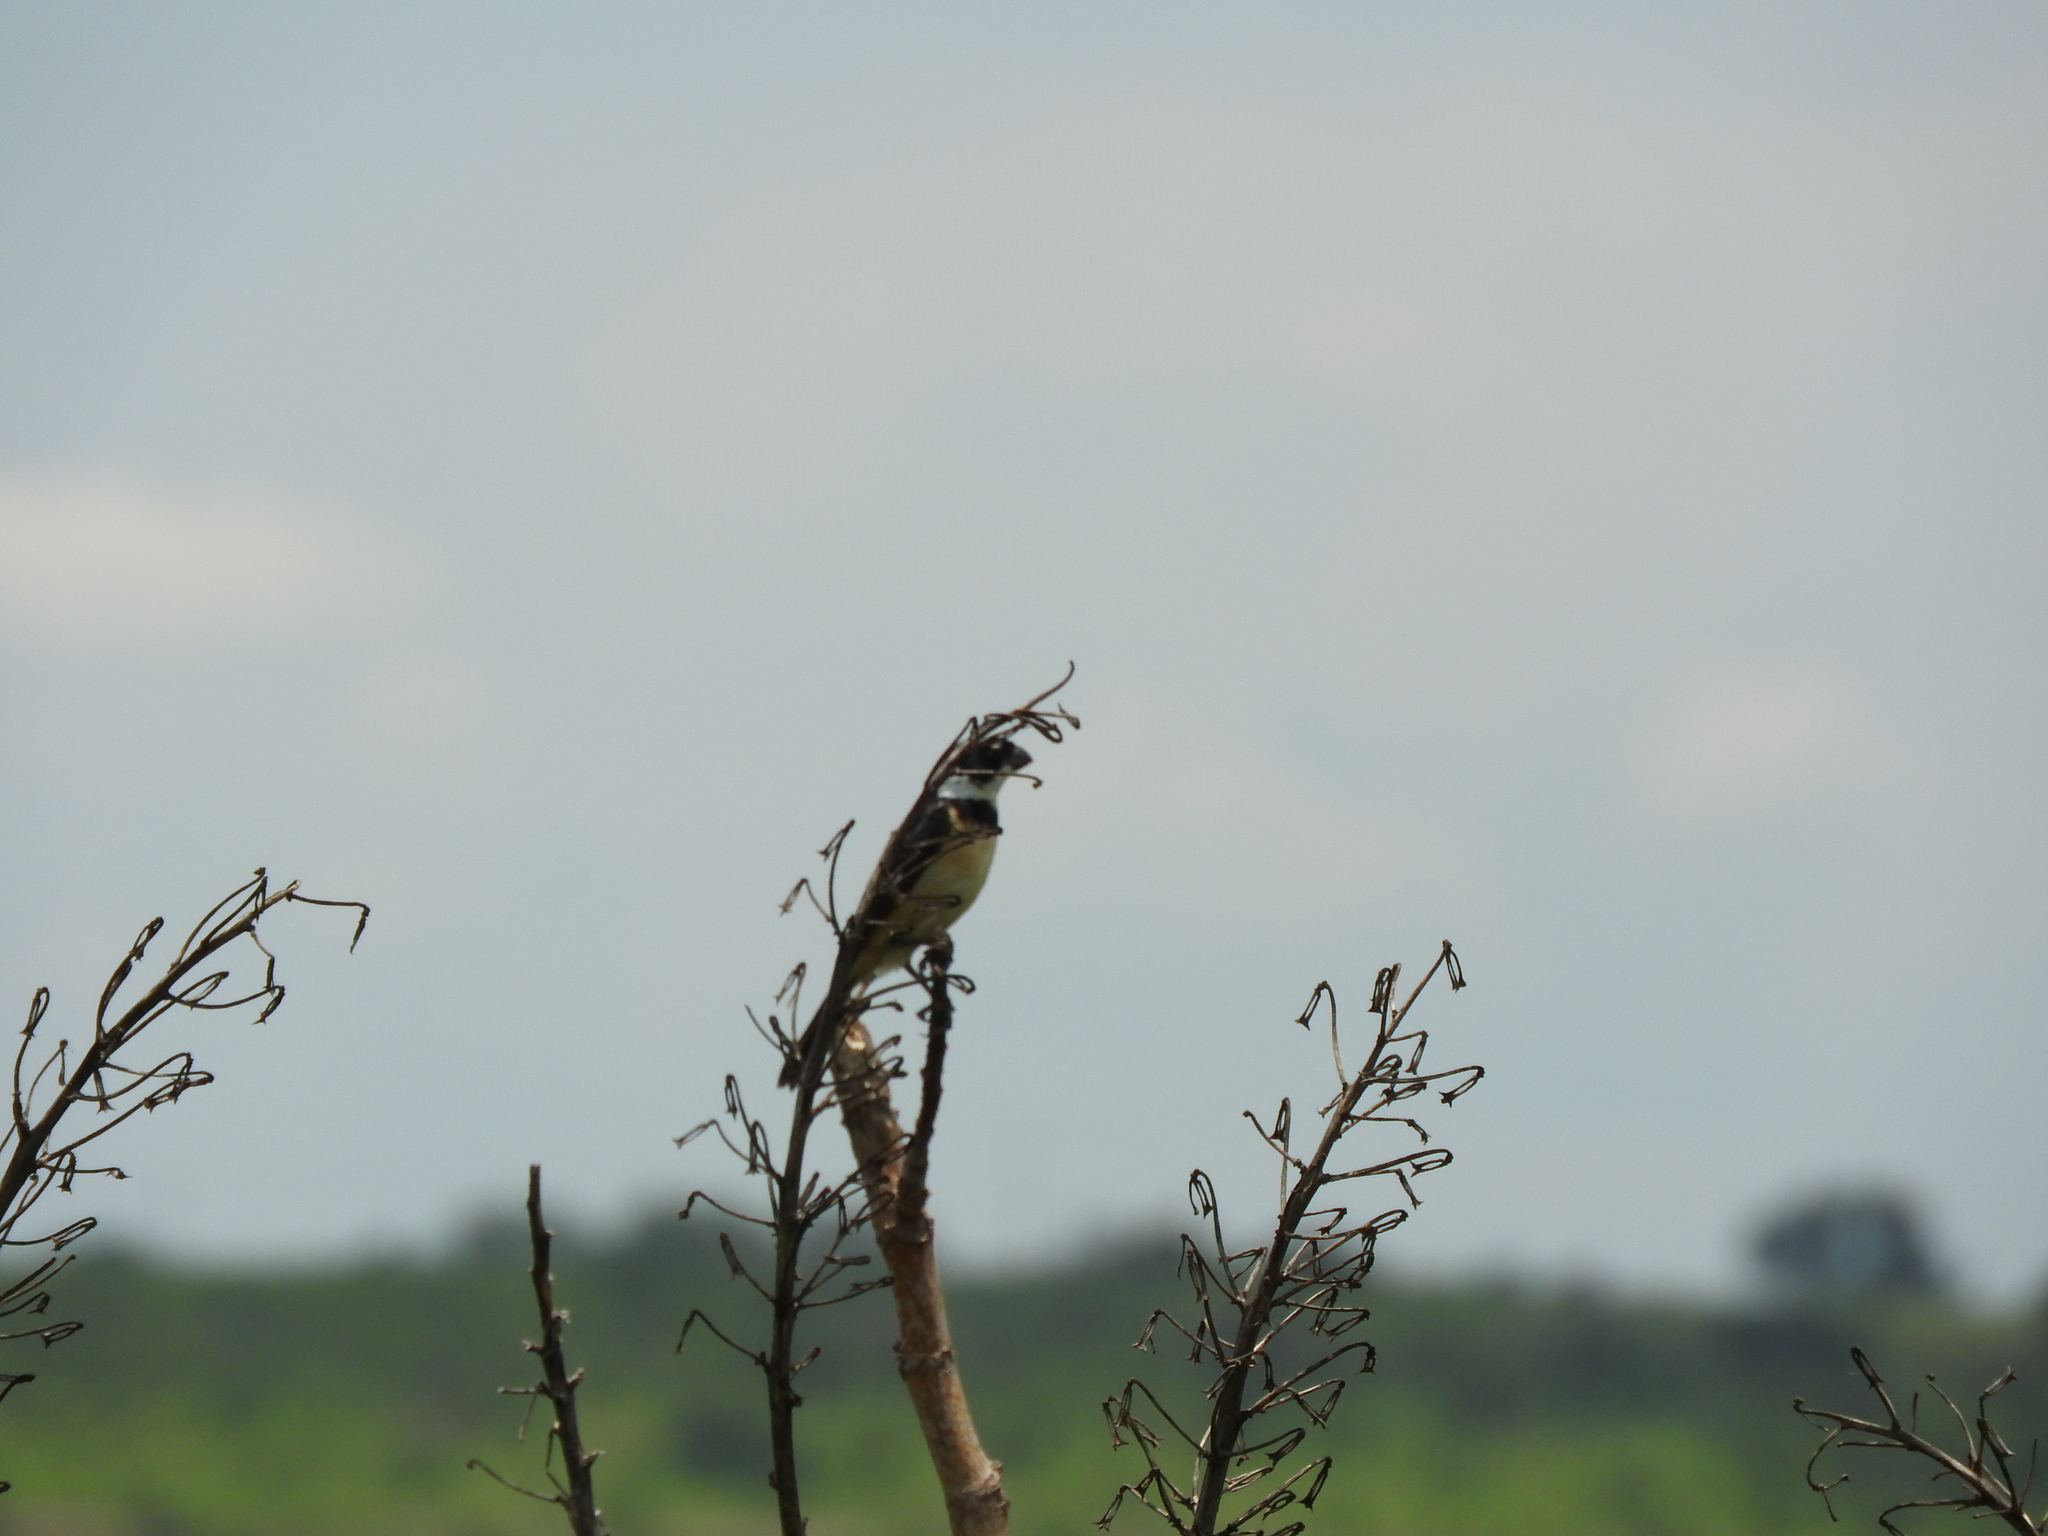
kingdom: Animalia
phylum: Chordata
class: Aves
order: Passeriformes
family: Thraupidae
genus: Sporophila
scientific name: Sporophila torqueola
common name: White-collared seedeater
